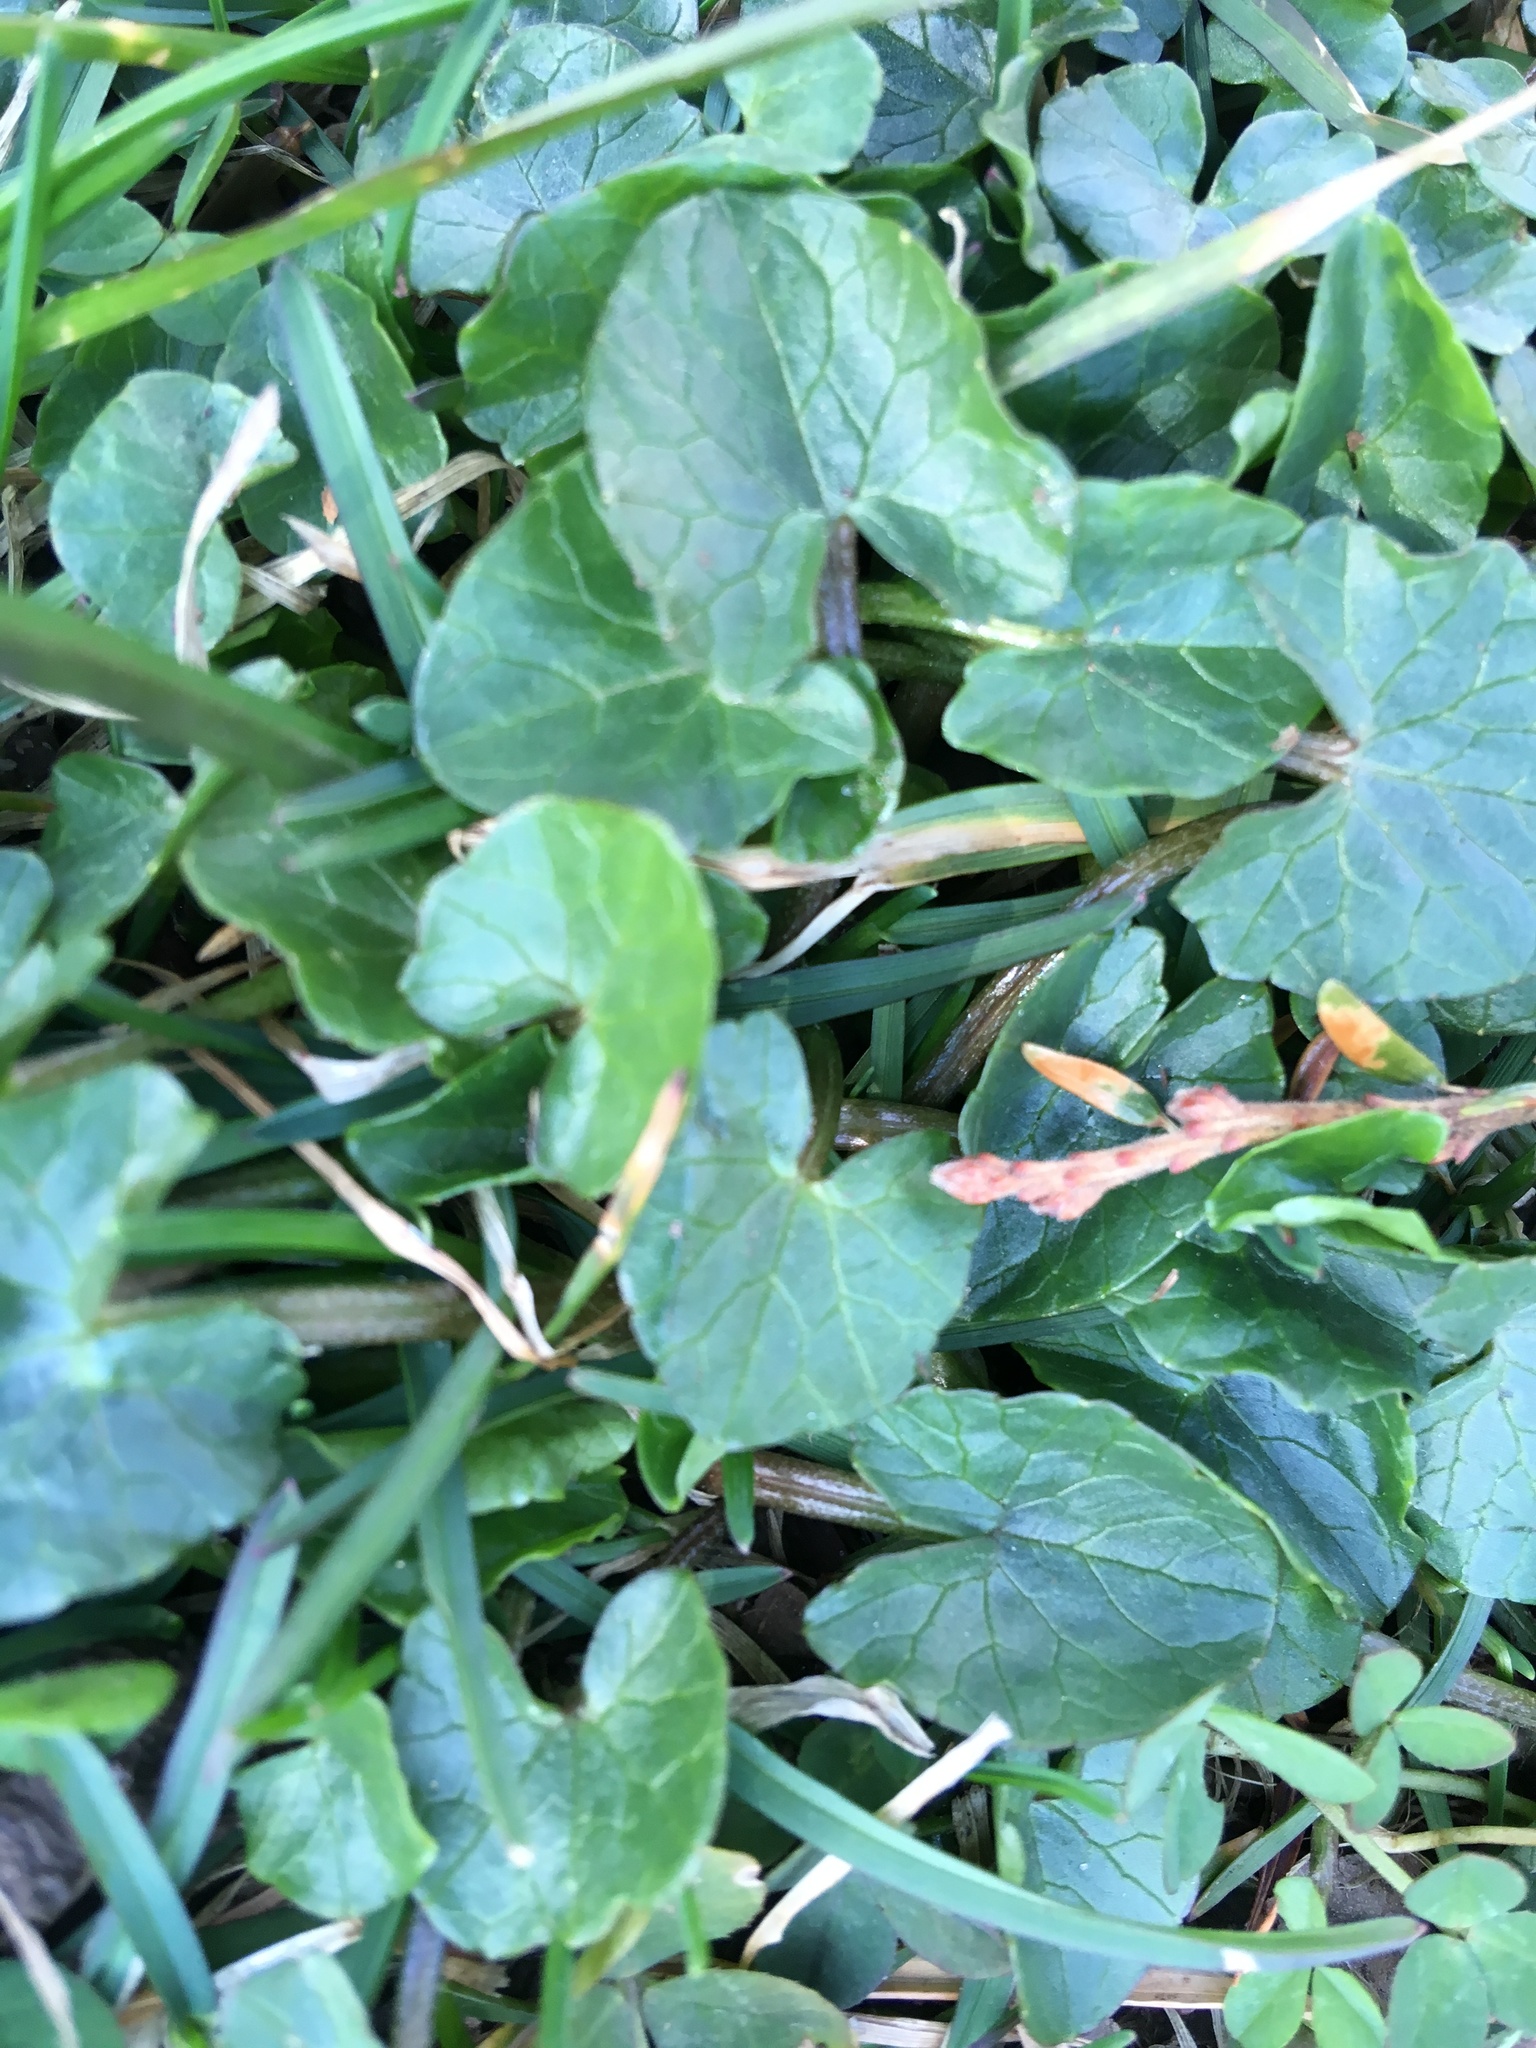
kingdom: Plantae
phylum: Tracheophyta
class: Magnoliopsida
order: Ranunculales
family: Ranunculaceae
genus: Ficaria
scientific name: Ficaria verna
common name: Lesser celandine
